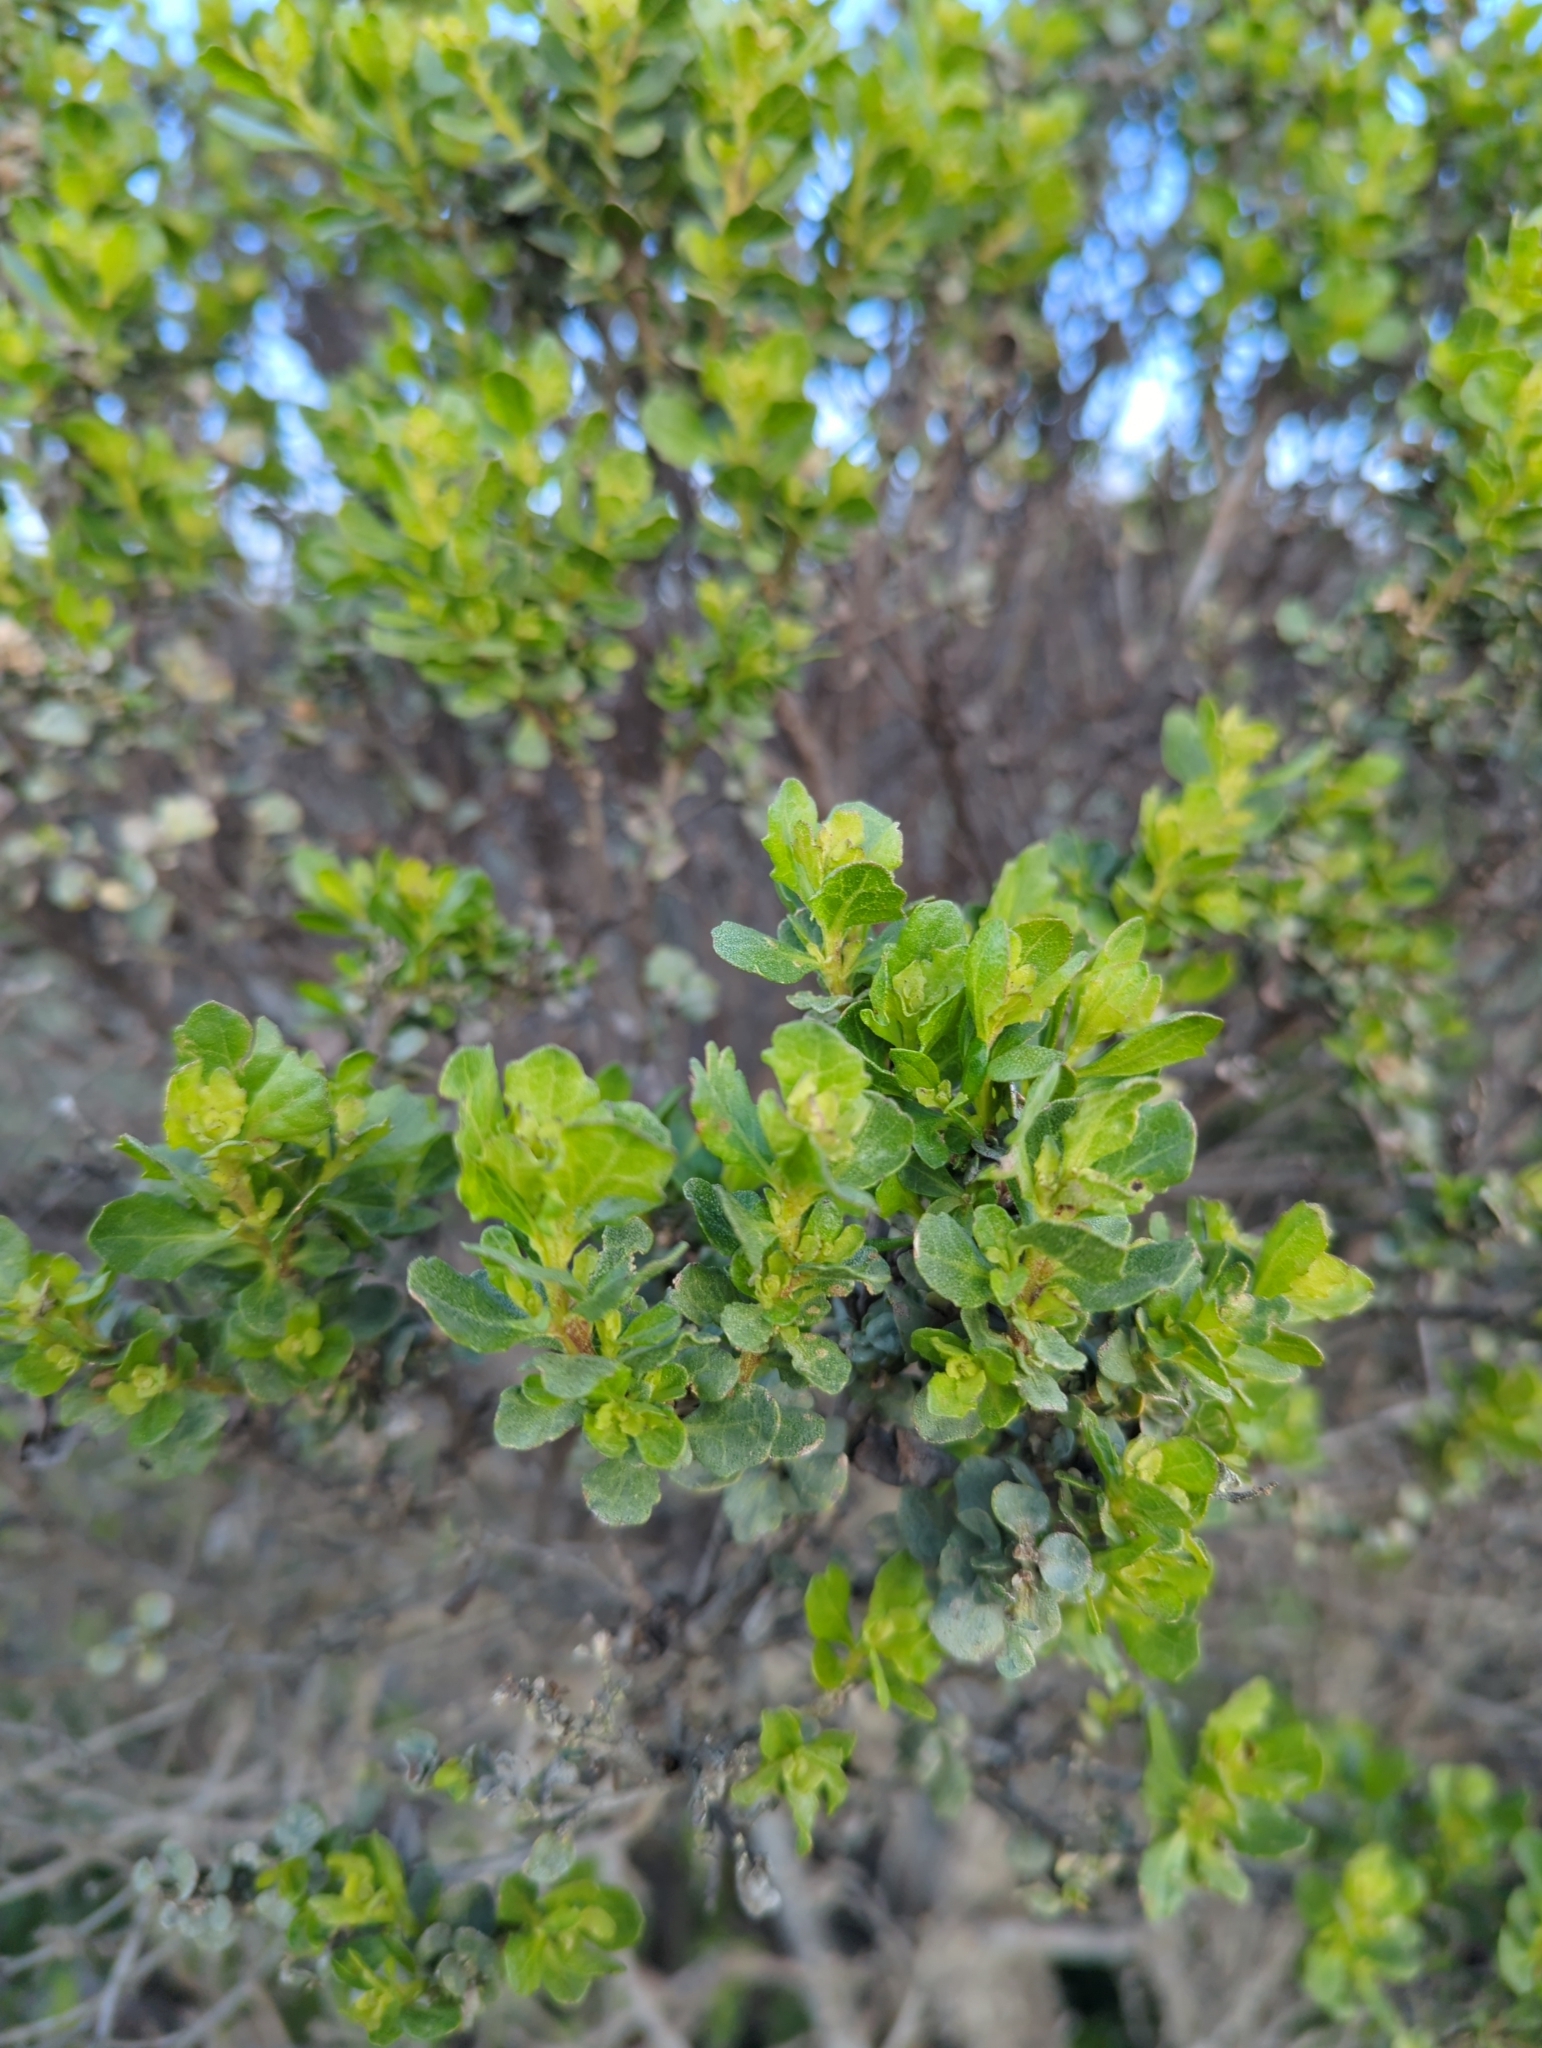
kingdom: Plantae
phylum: Tracheophyta
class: Magnoliopsida
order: Asterales
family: Asteraceae
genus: Baccharis
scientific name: Baccharis pilularis
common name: Coyotebrush
